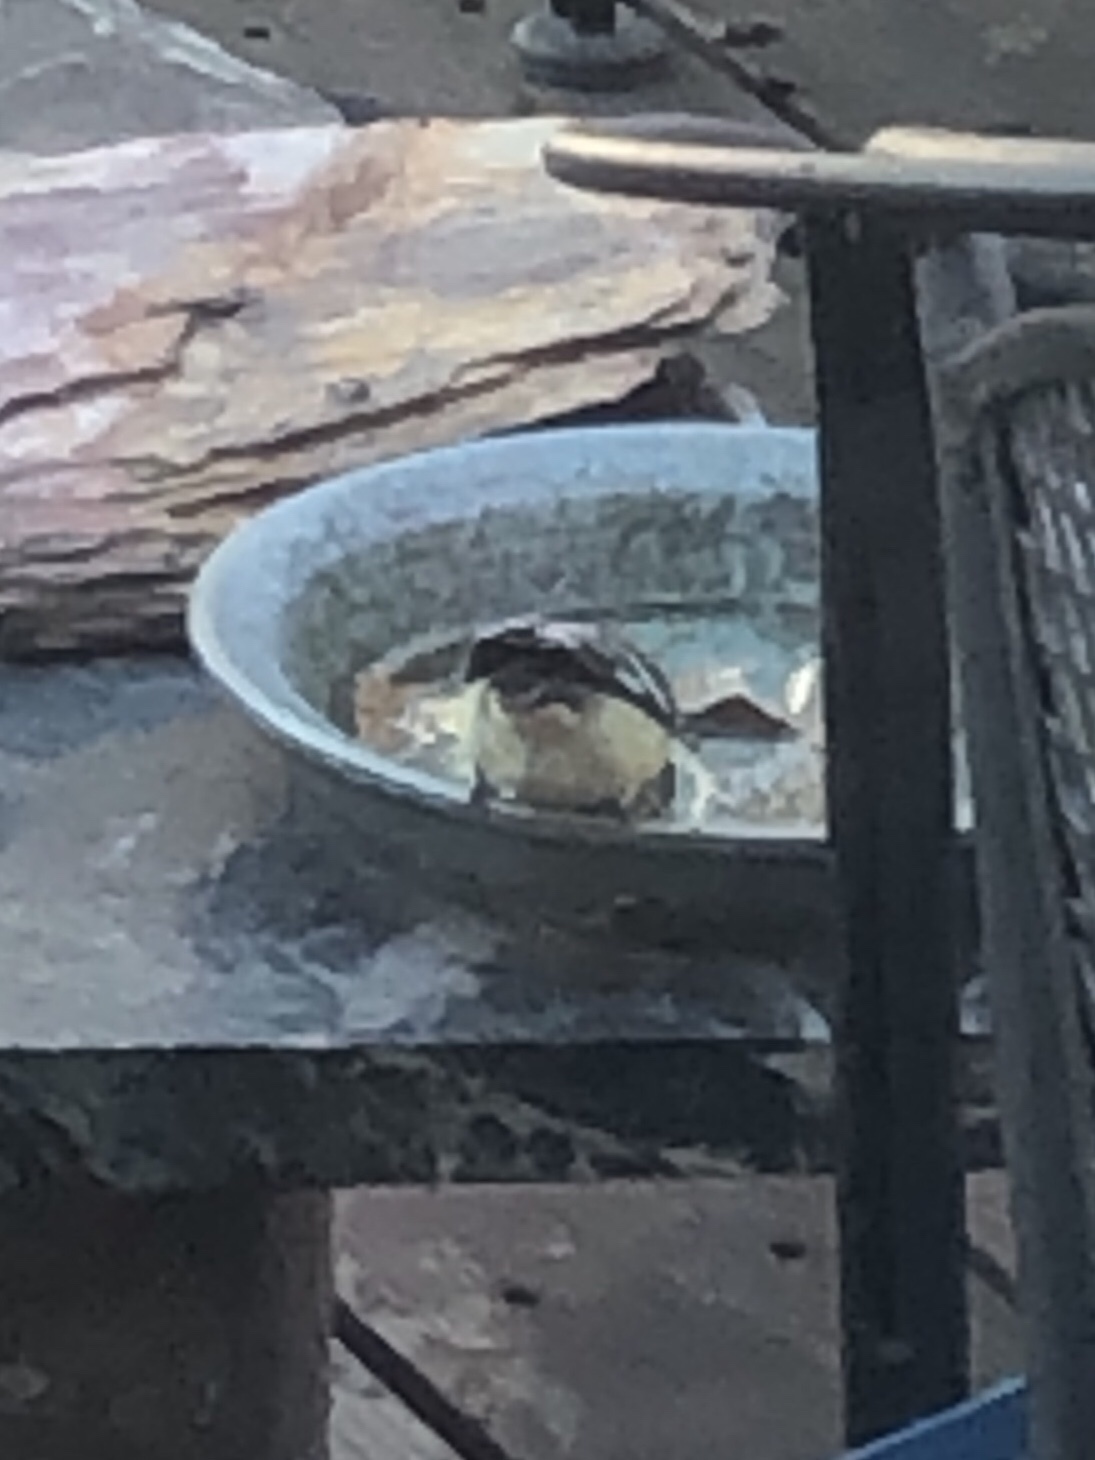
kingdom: Animalia
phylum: Chordata
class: Aves
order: Passeriformes
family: Fringillidae
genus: Spinus
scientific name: Spinus psaltria
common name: Lesser goldfinch
